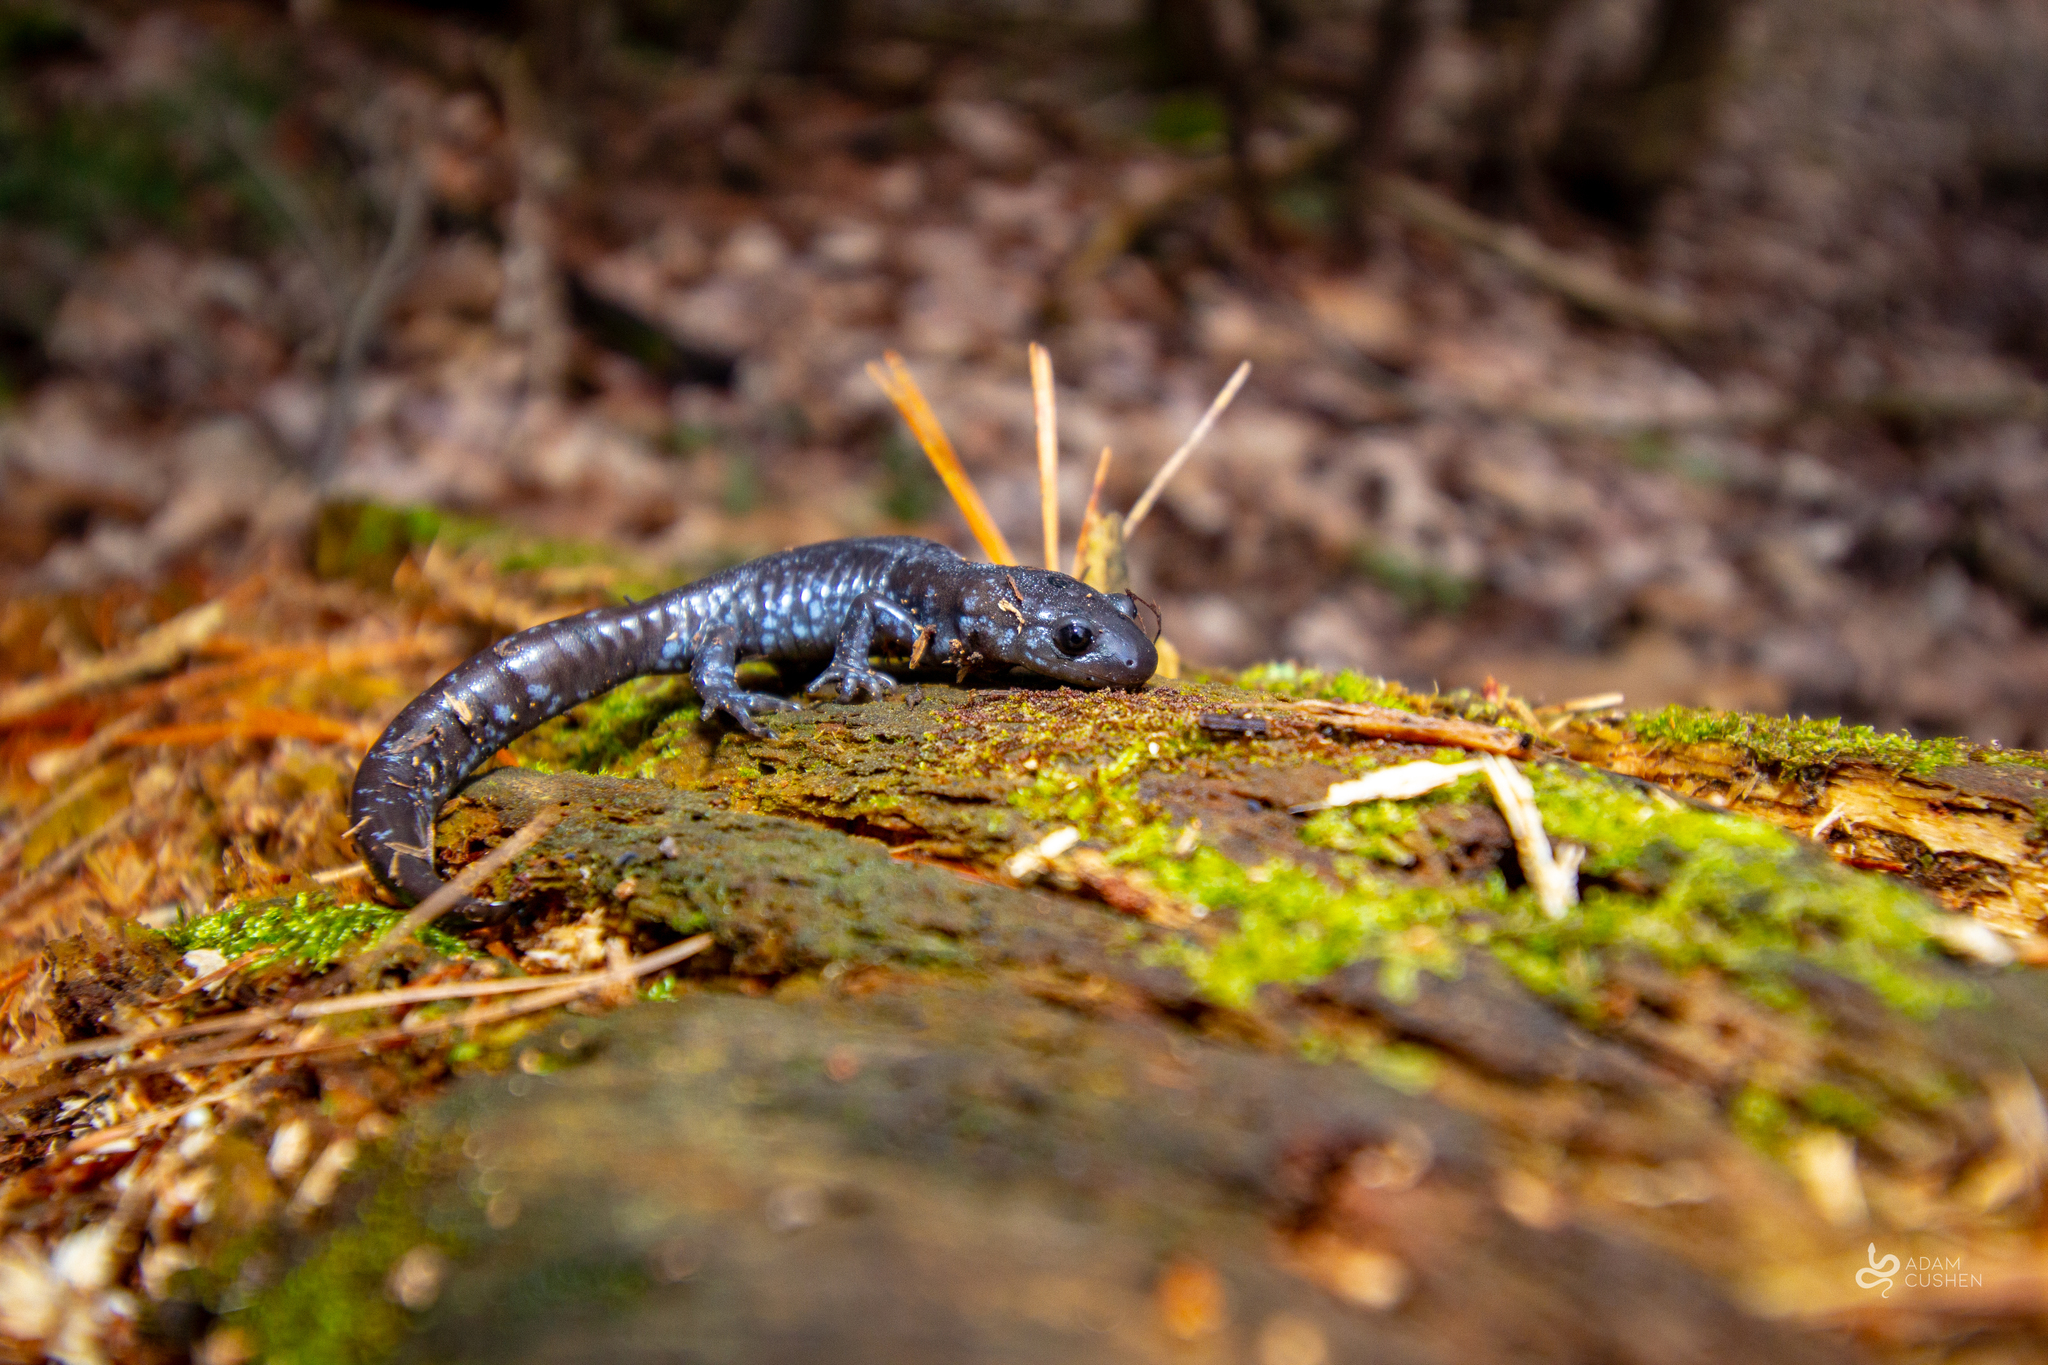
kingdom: Animalia
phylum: Chordata
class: Amphibia
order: Caudata
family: Ambystomatidae
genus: Ambystoma
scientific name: Ambystoma laterale
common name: Blue-spotted salamander
